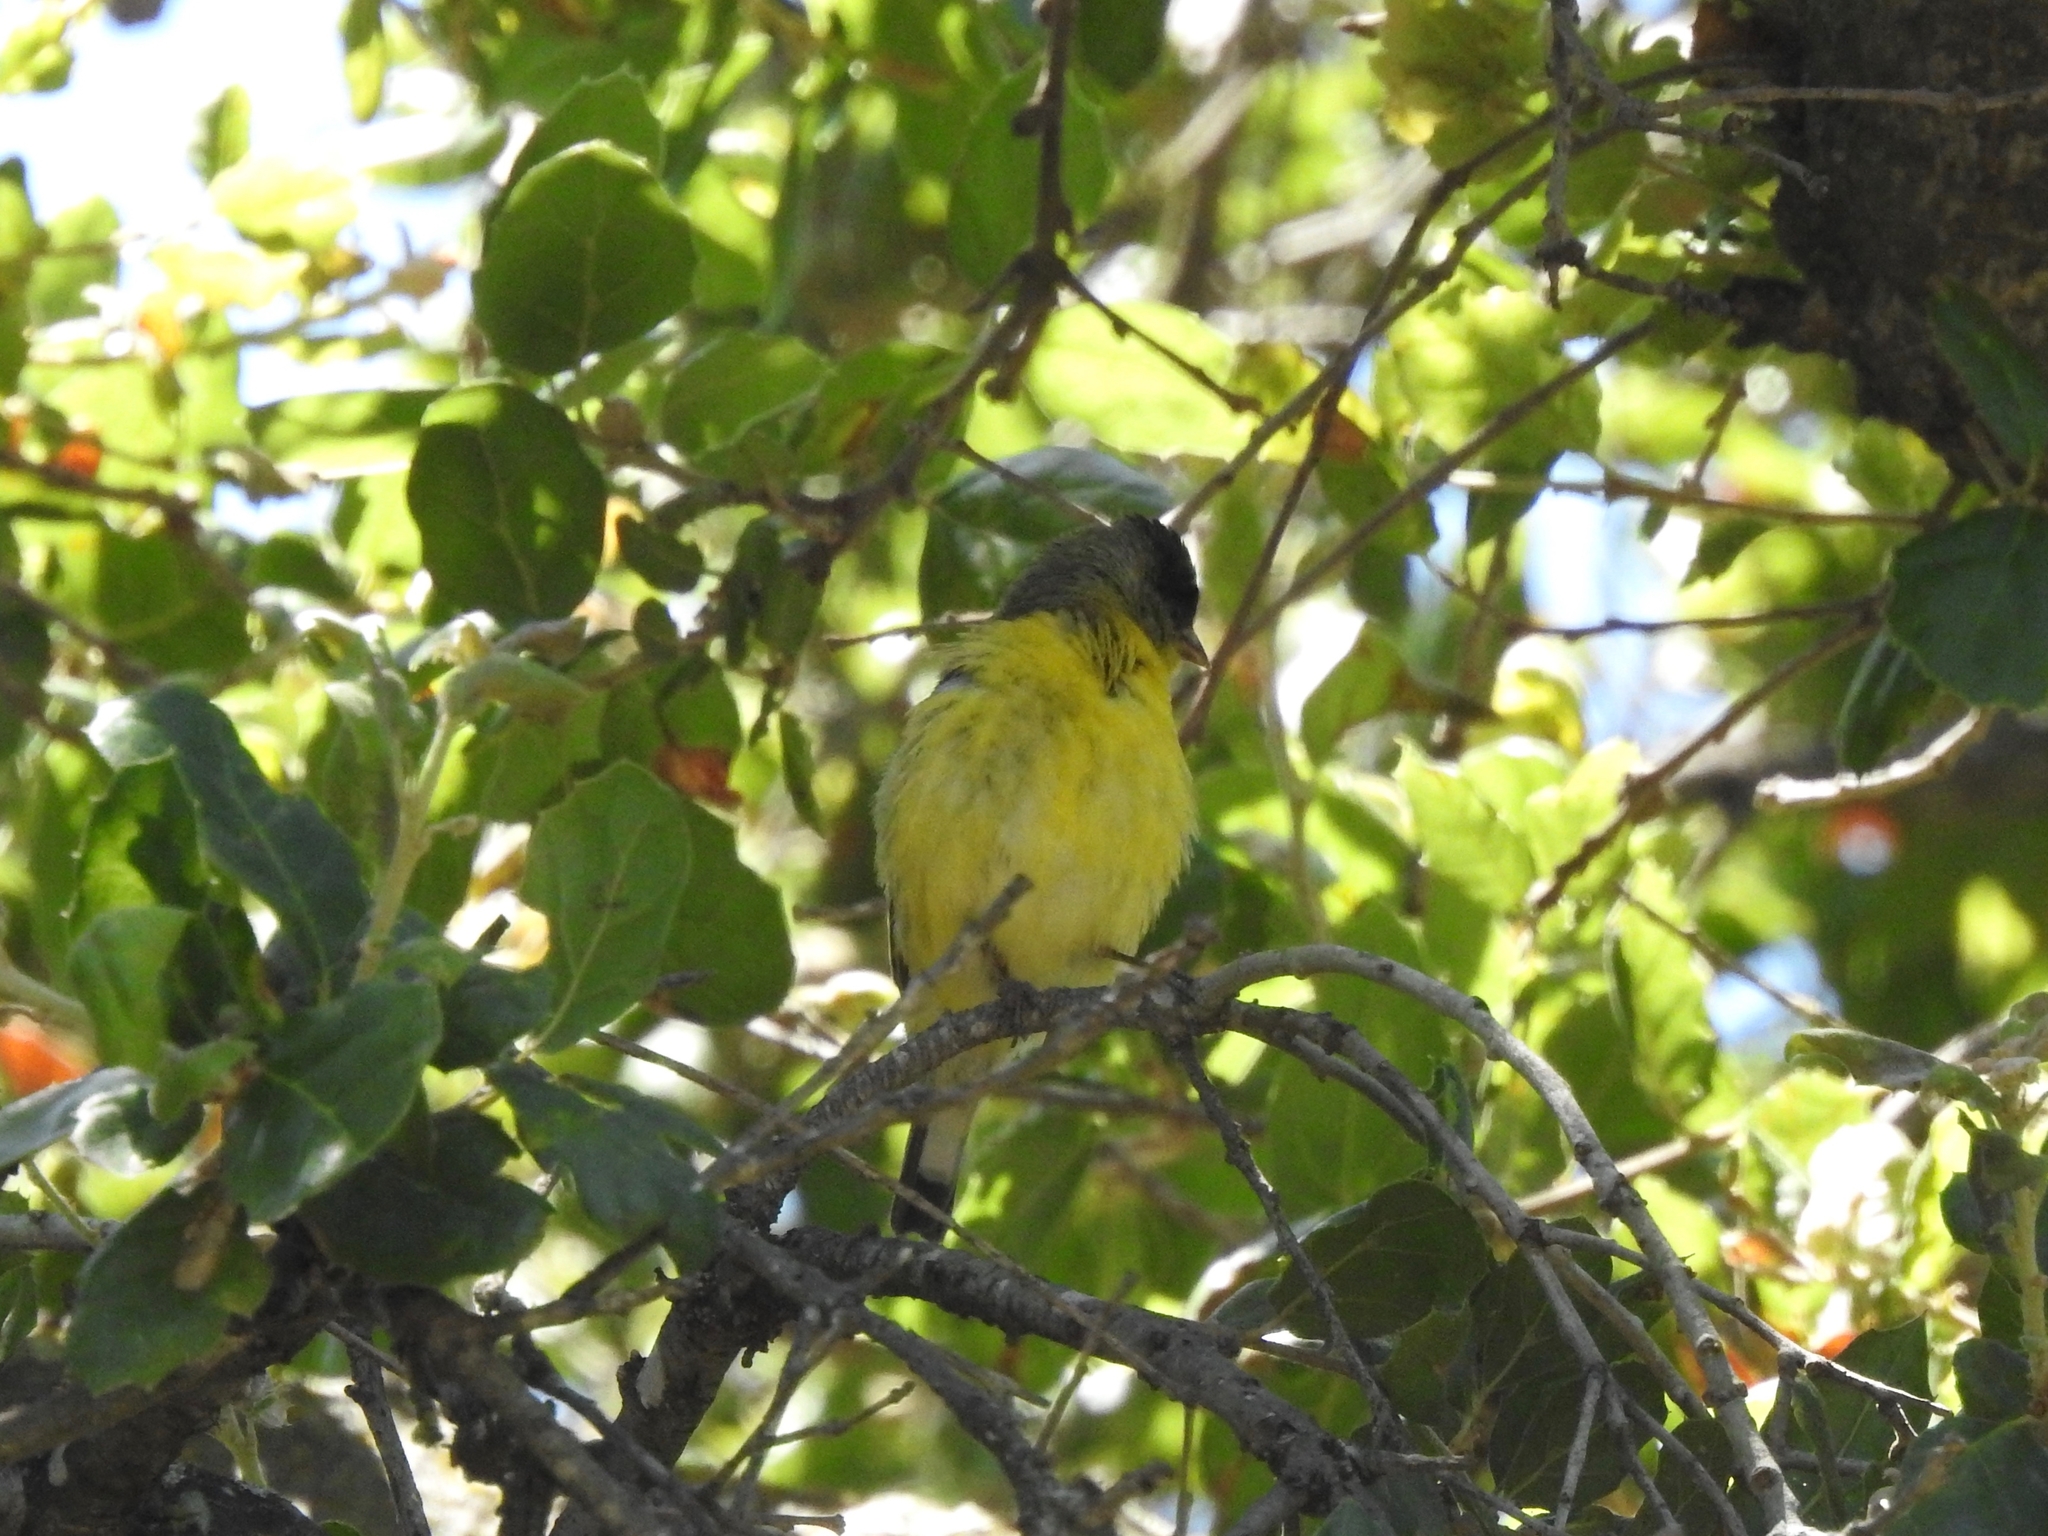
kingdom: Animalia
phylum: Chordata
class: Aves
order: Passeriformes
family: Fringillidae
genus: Spinus
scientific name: Spinus psaltria
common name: Lesser goldfinch
